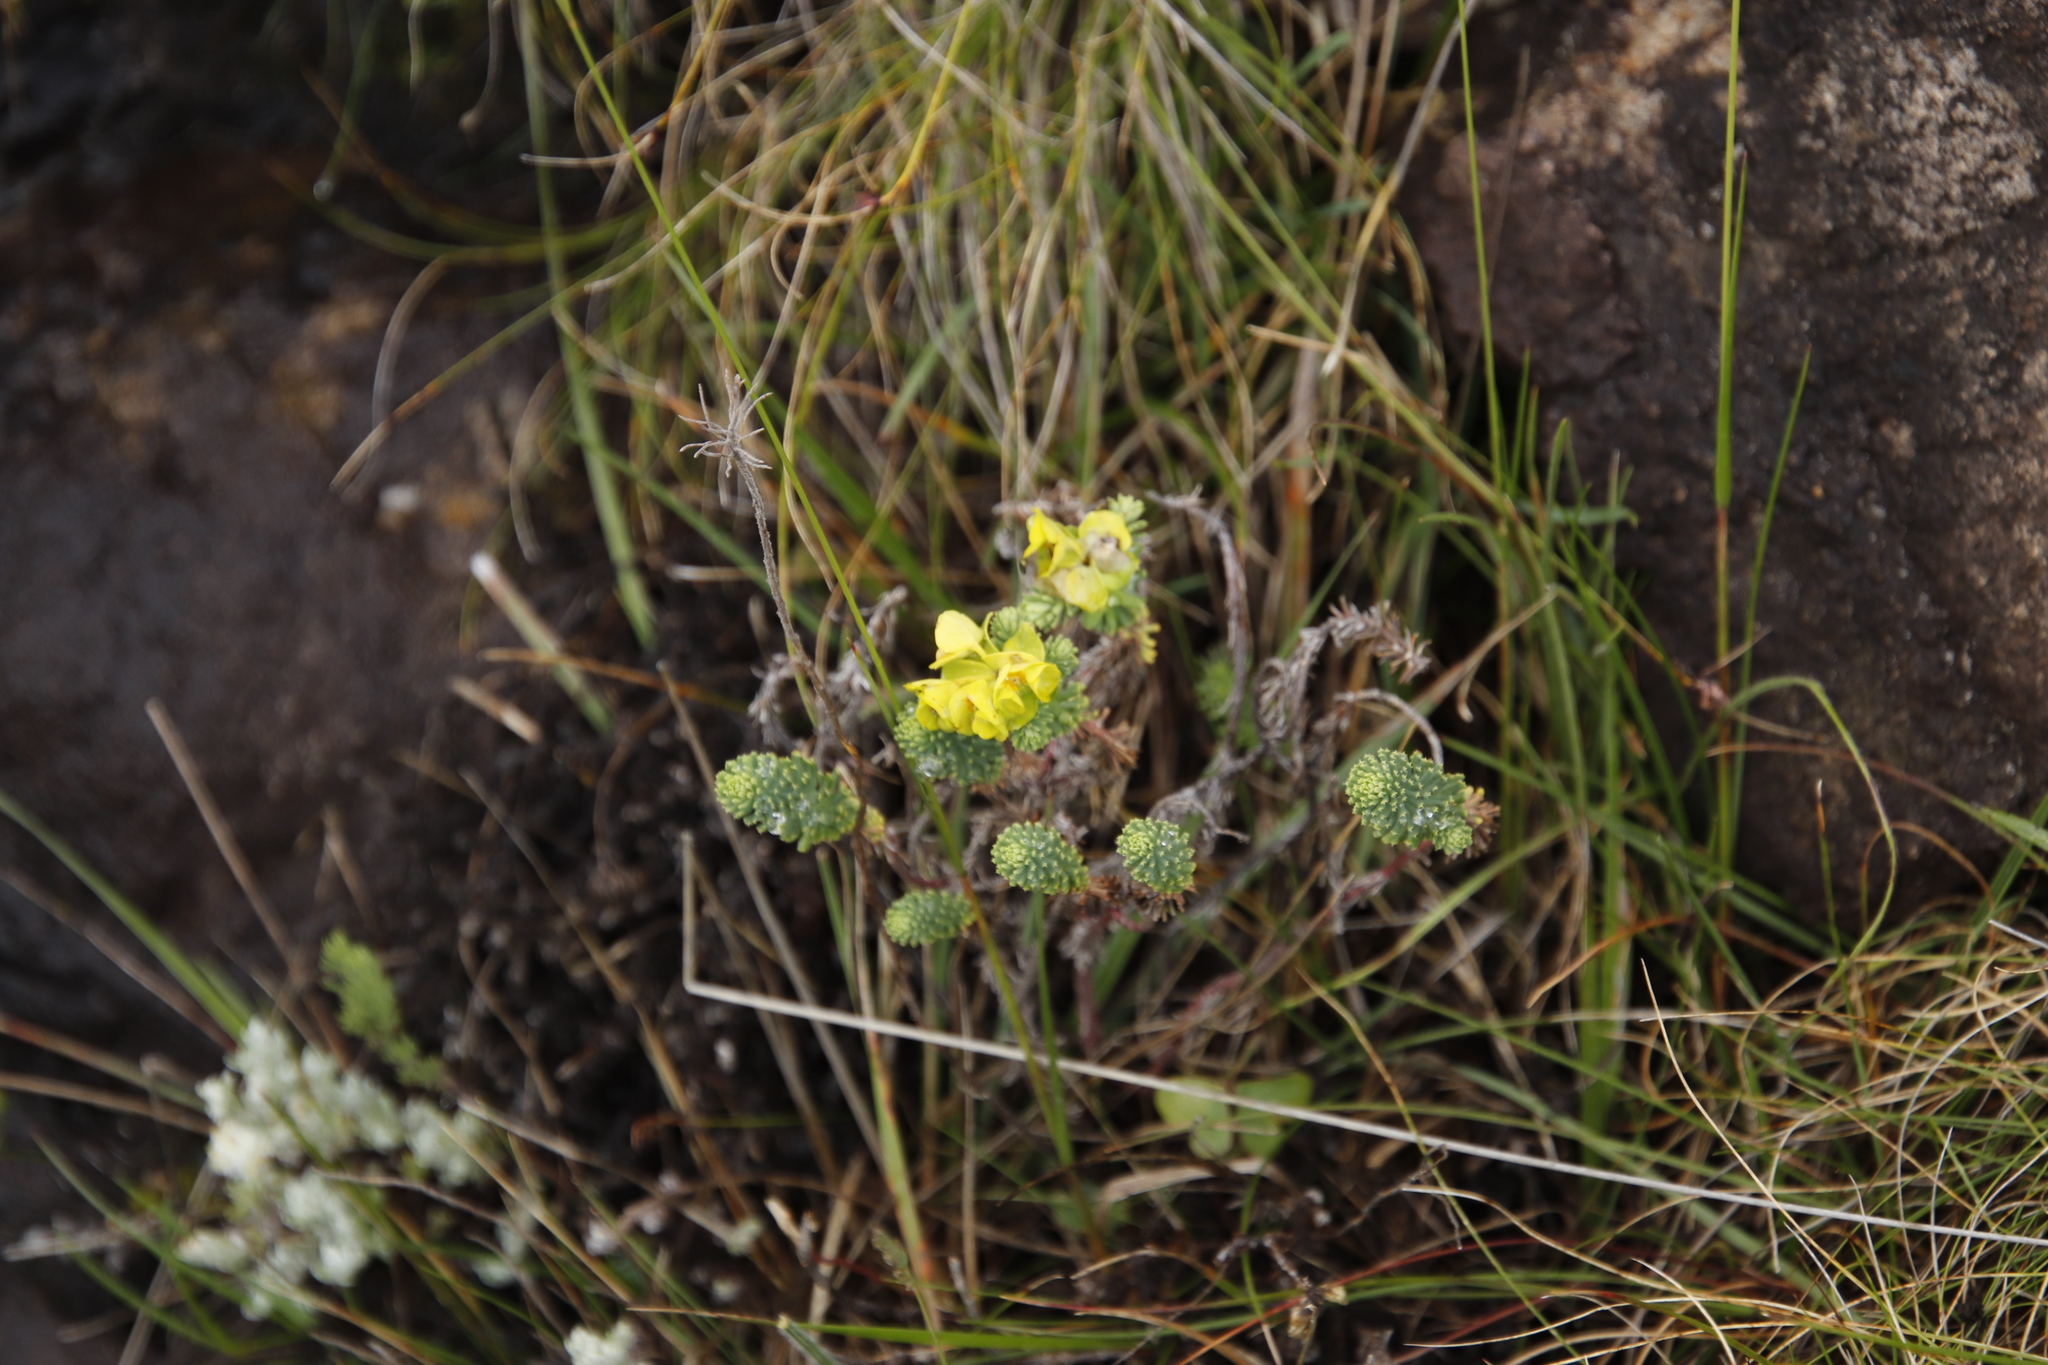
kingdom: Plantae
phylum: Tracheophyta
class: Magnoliopsida
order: Malpighiales
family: Euphorbiaceae
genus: Euphorbia
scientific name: Euphorbia ericoides
